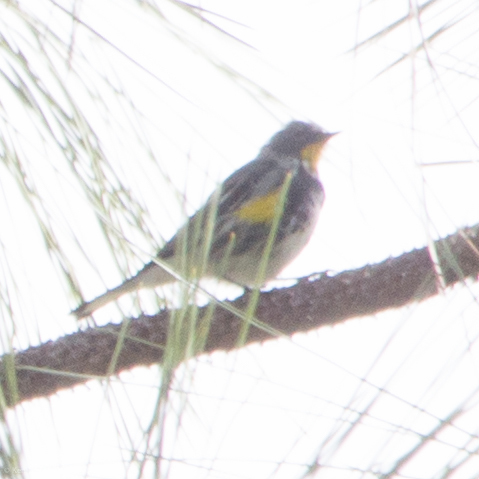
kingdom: Animalia
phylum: Chordata
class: Aves
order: Passeriformes
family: Parulidae
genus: Setophaga
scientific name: Setophaga coronata
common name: Myrtle warbler
